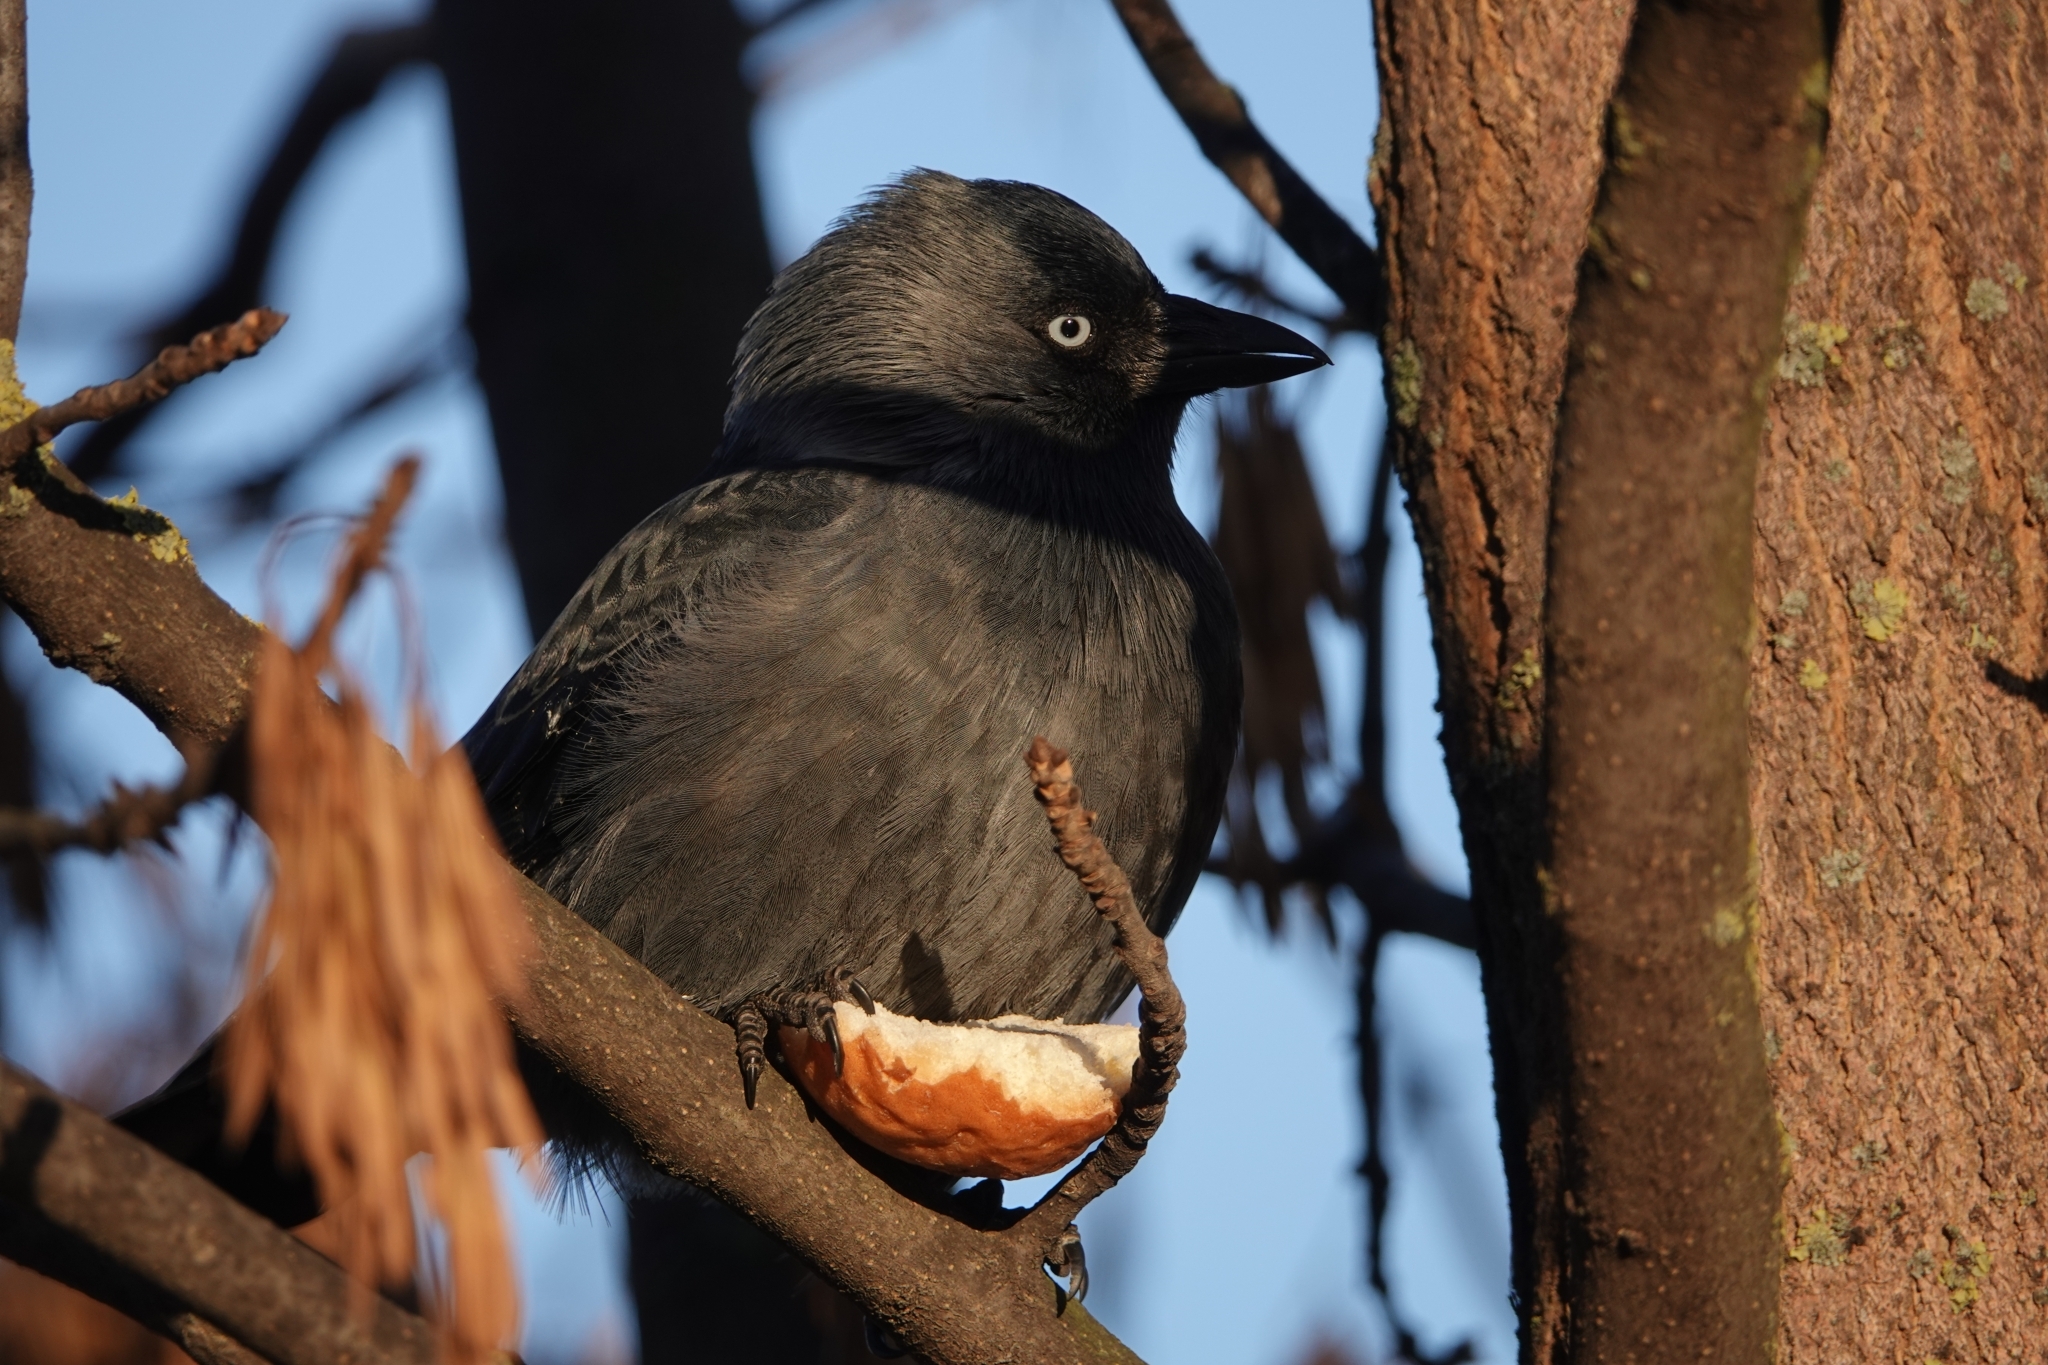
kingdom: Animalia
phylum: Chordata
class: Aves
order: Passeriformes
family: Corvidae
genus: Coloeus
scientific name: Coloeus monedula
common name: Western jackdaw
